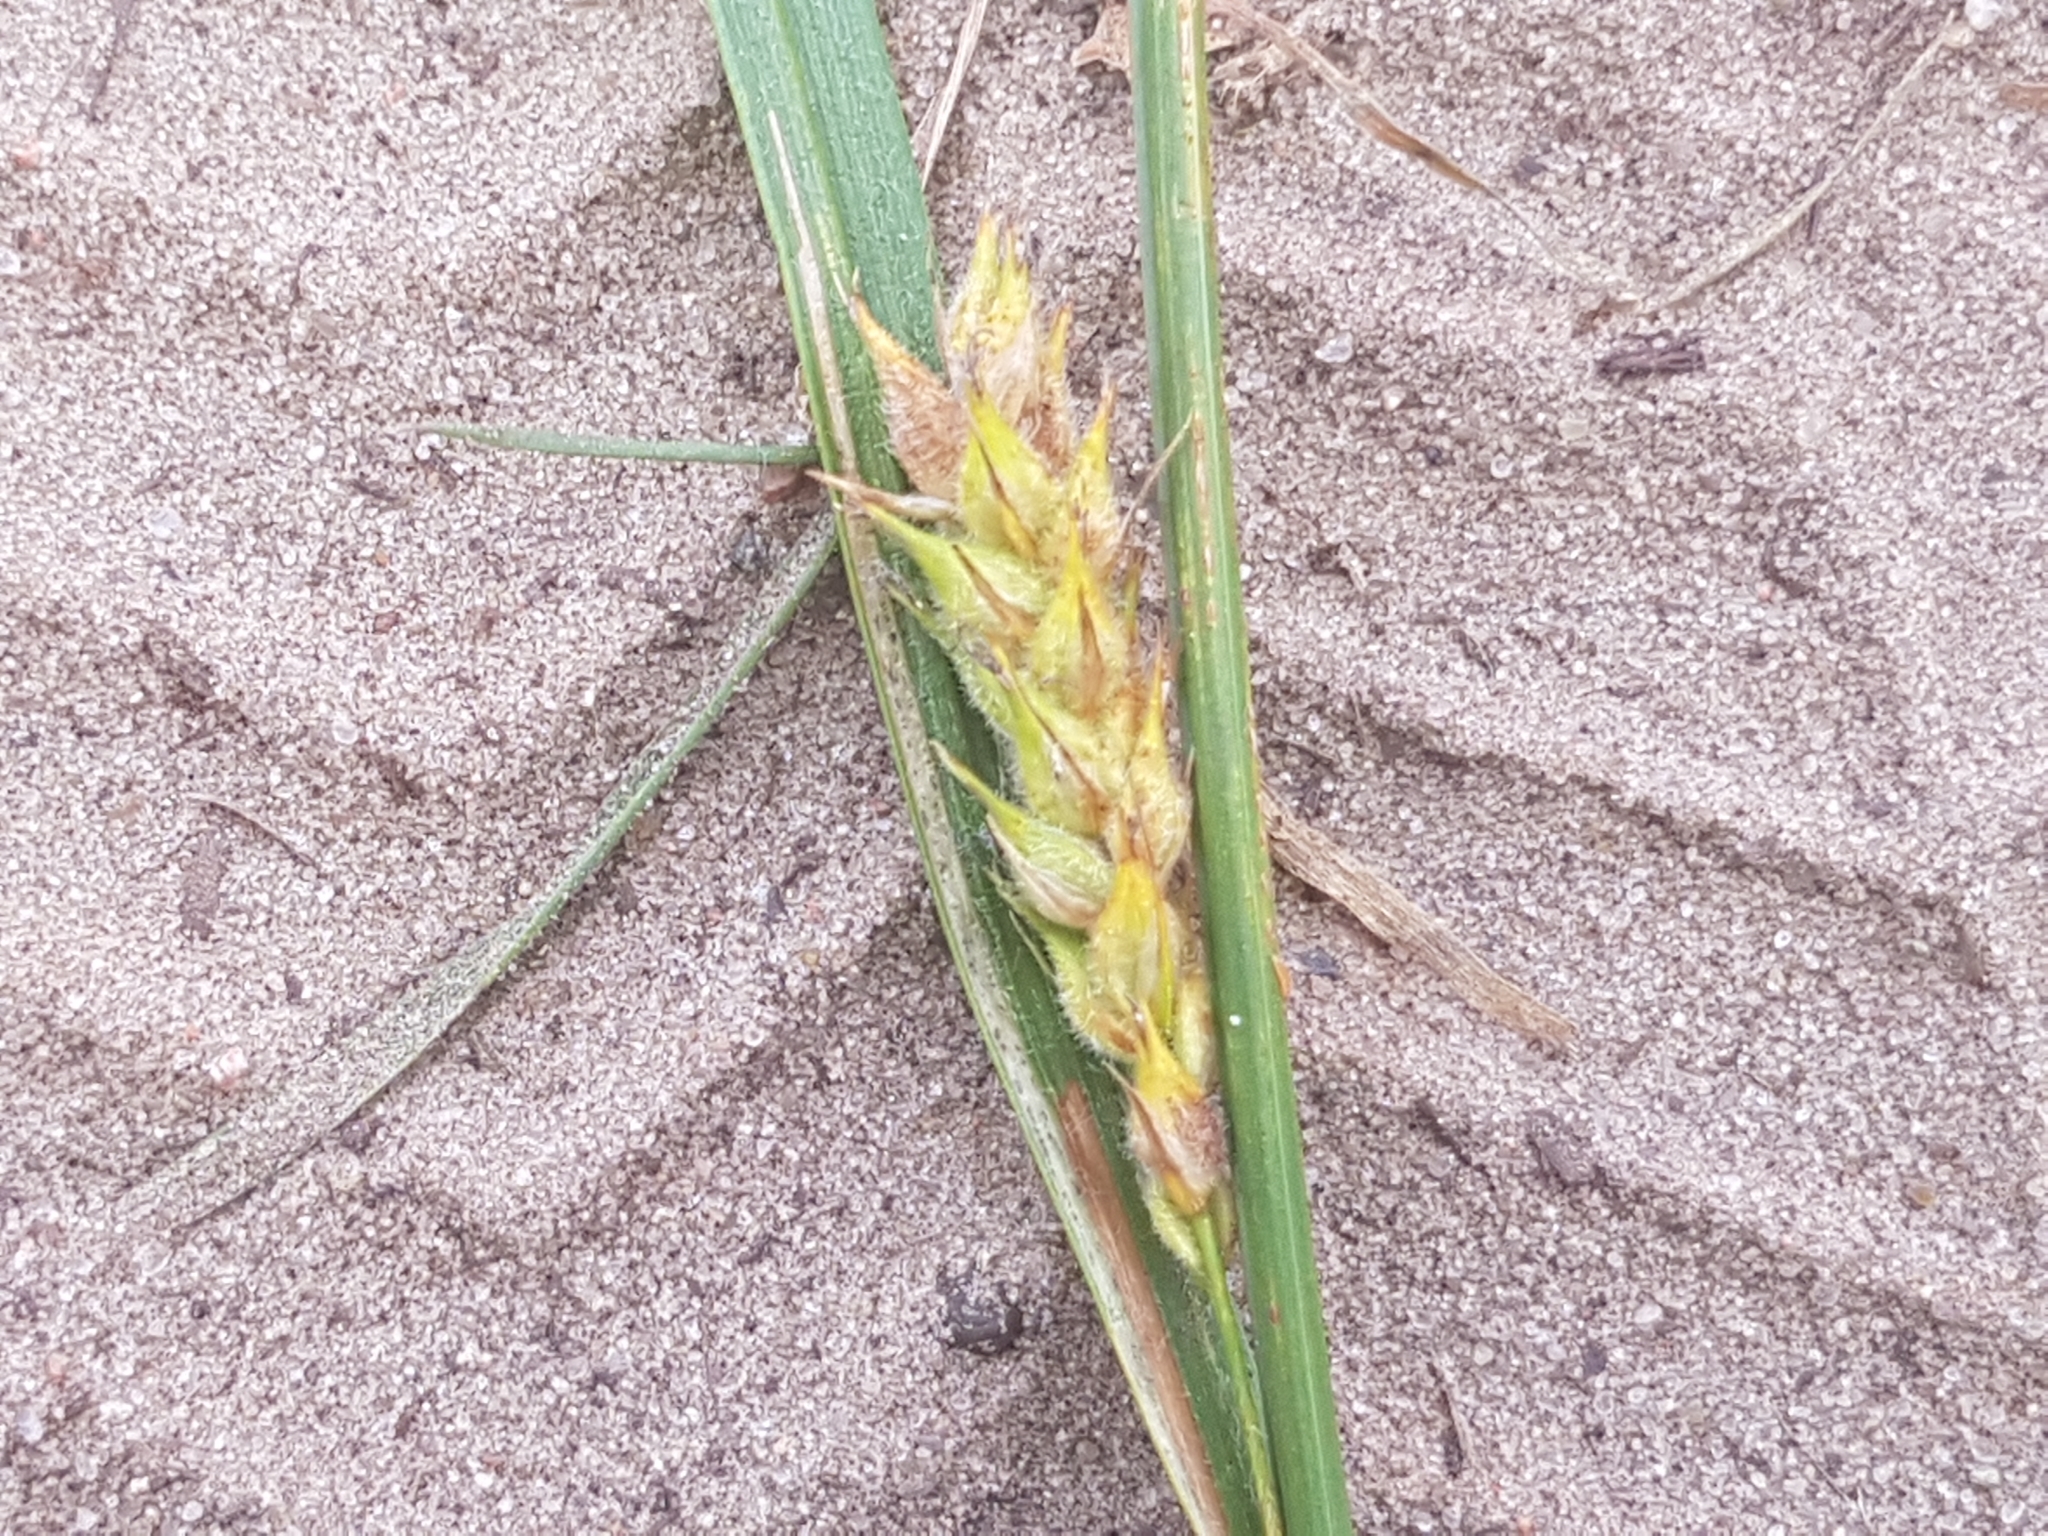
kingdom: Plantae
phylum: Tracheophyta
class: Liliopsida
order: Poales
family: Cyperaceae
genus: Carex
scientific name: Carex hirta
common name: Hairy sedge
